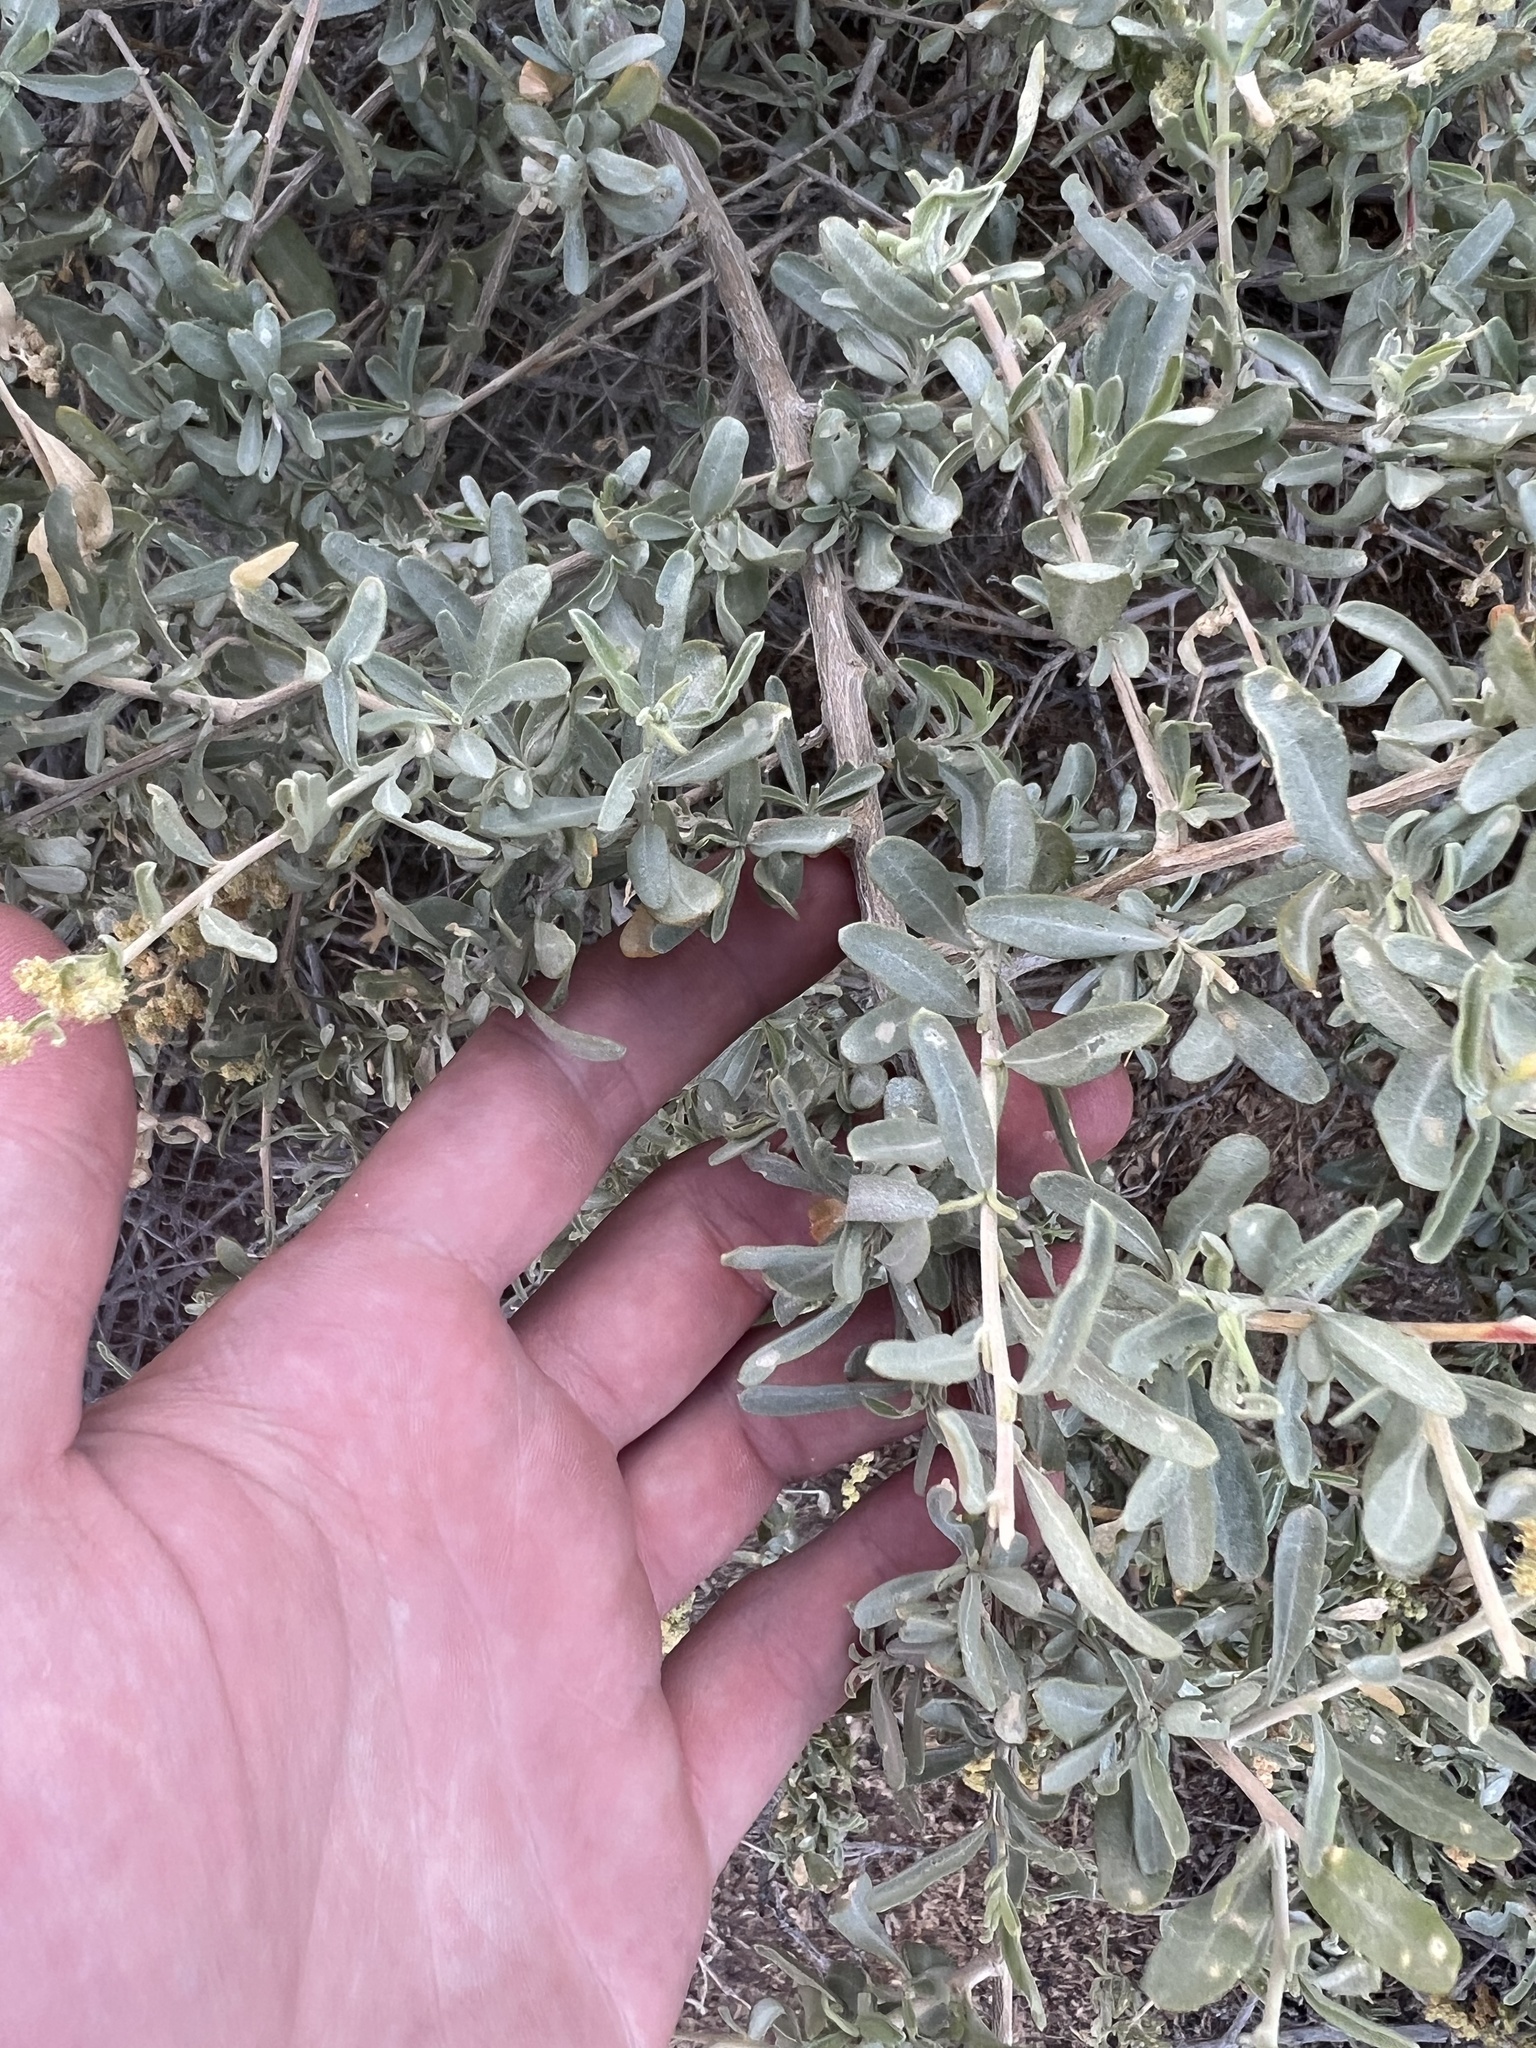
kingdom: Plantae
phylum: Tracheophyta
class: Magnoliopsida
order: Caryophyllales
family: Amaranthaceae
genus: Atriplex
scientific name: Atriplex canescens
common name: Four-wing saltbush
